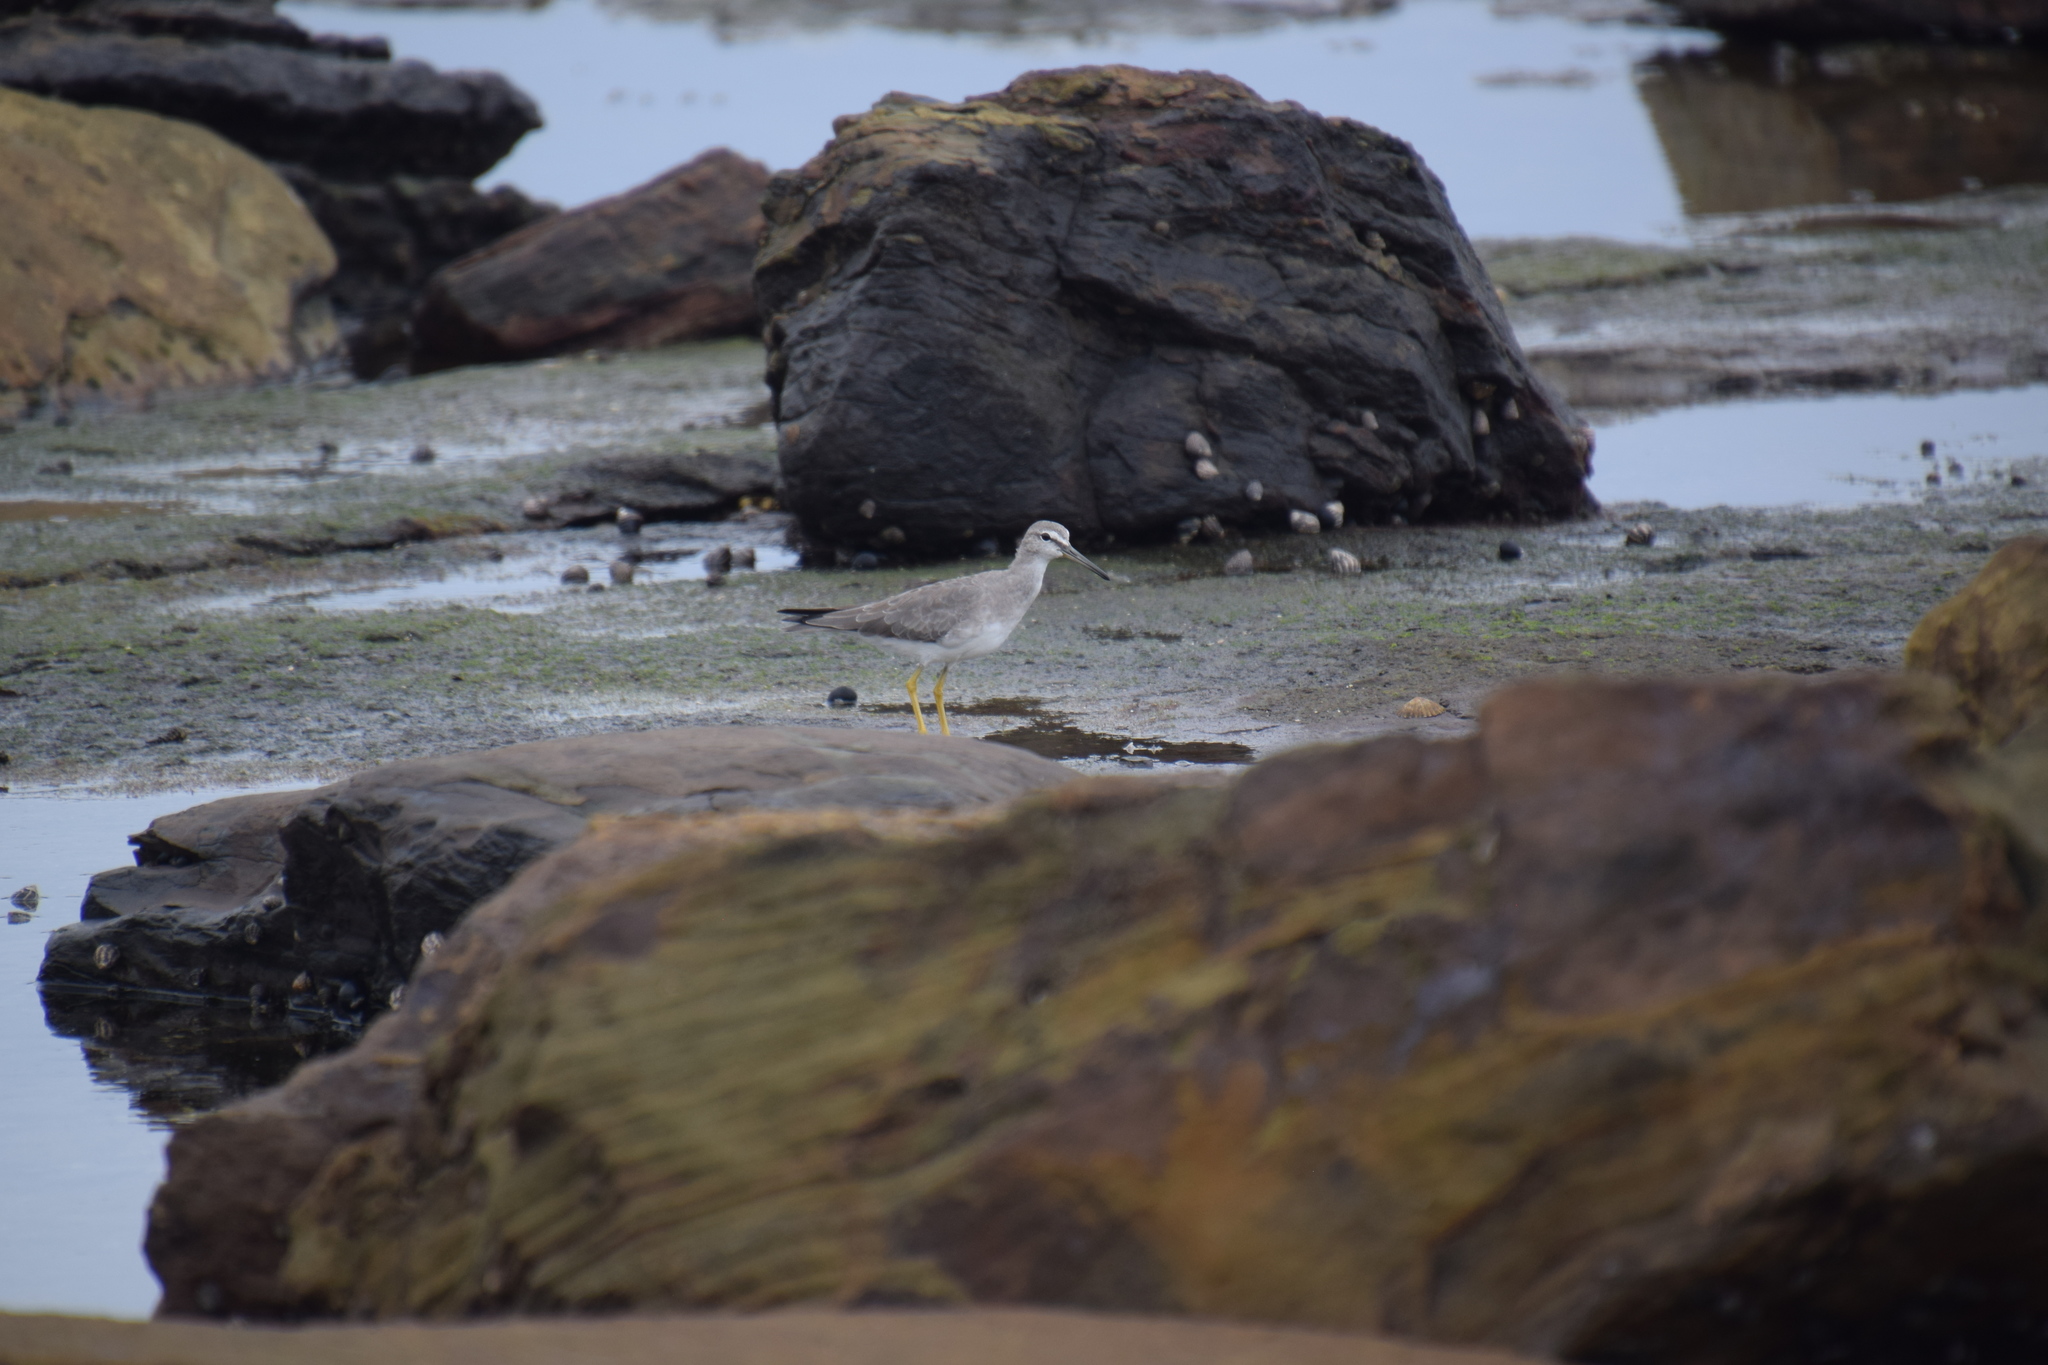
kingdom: Animalia
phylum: Chordata
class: Aves
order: Charadriiformes
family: Scolopacidae
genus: Tringa
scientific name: Tringa brevipes
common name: Grey-tailed tattler
